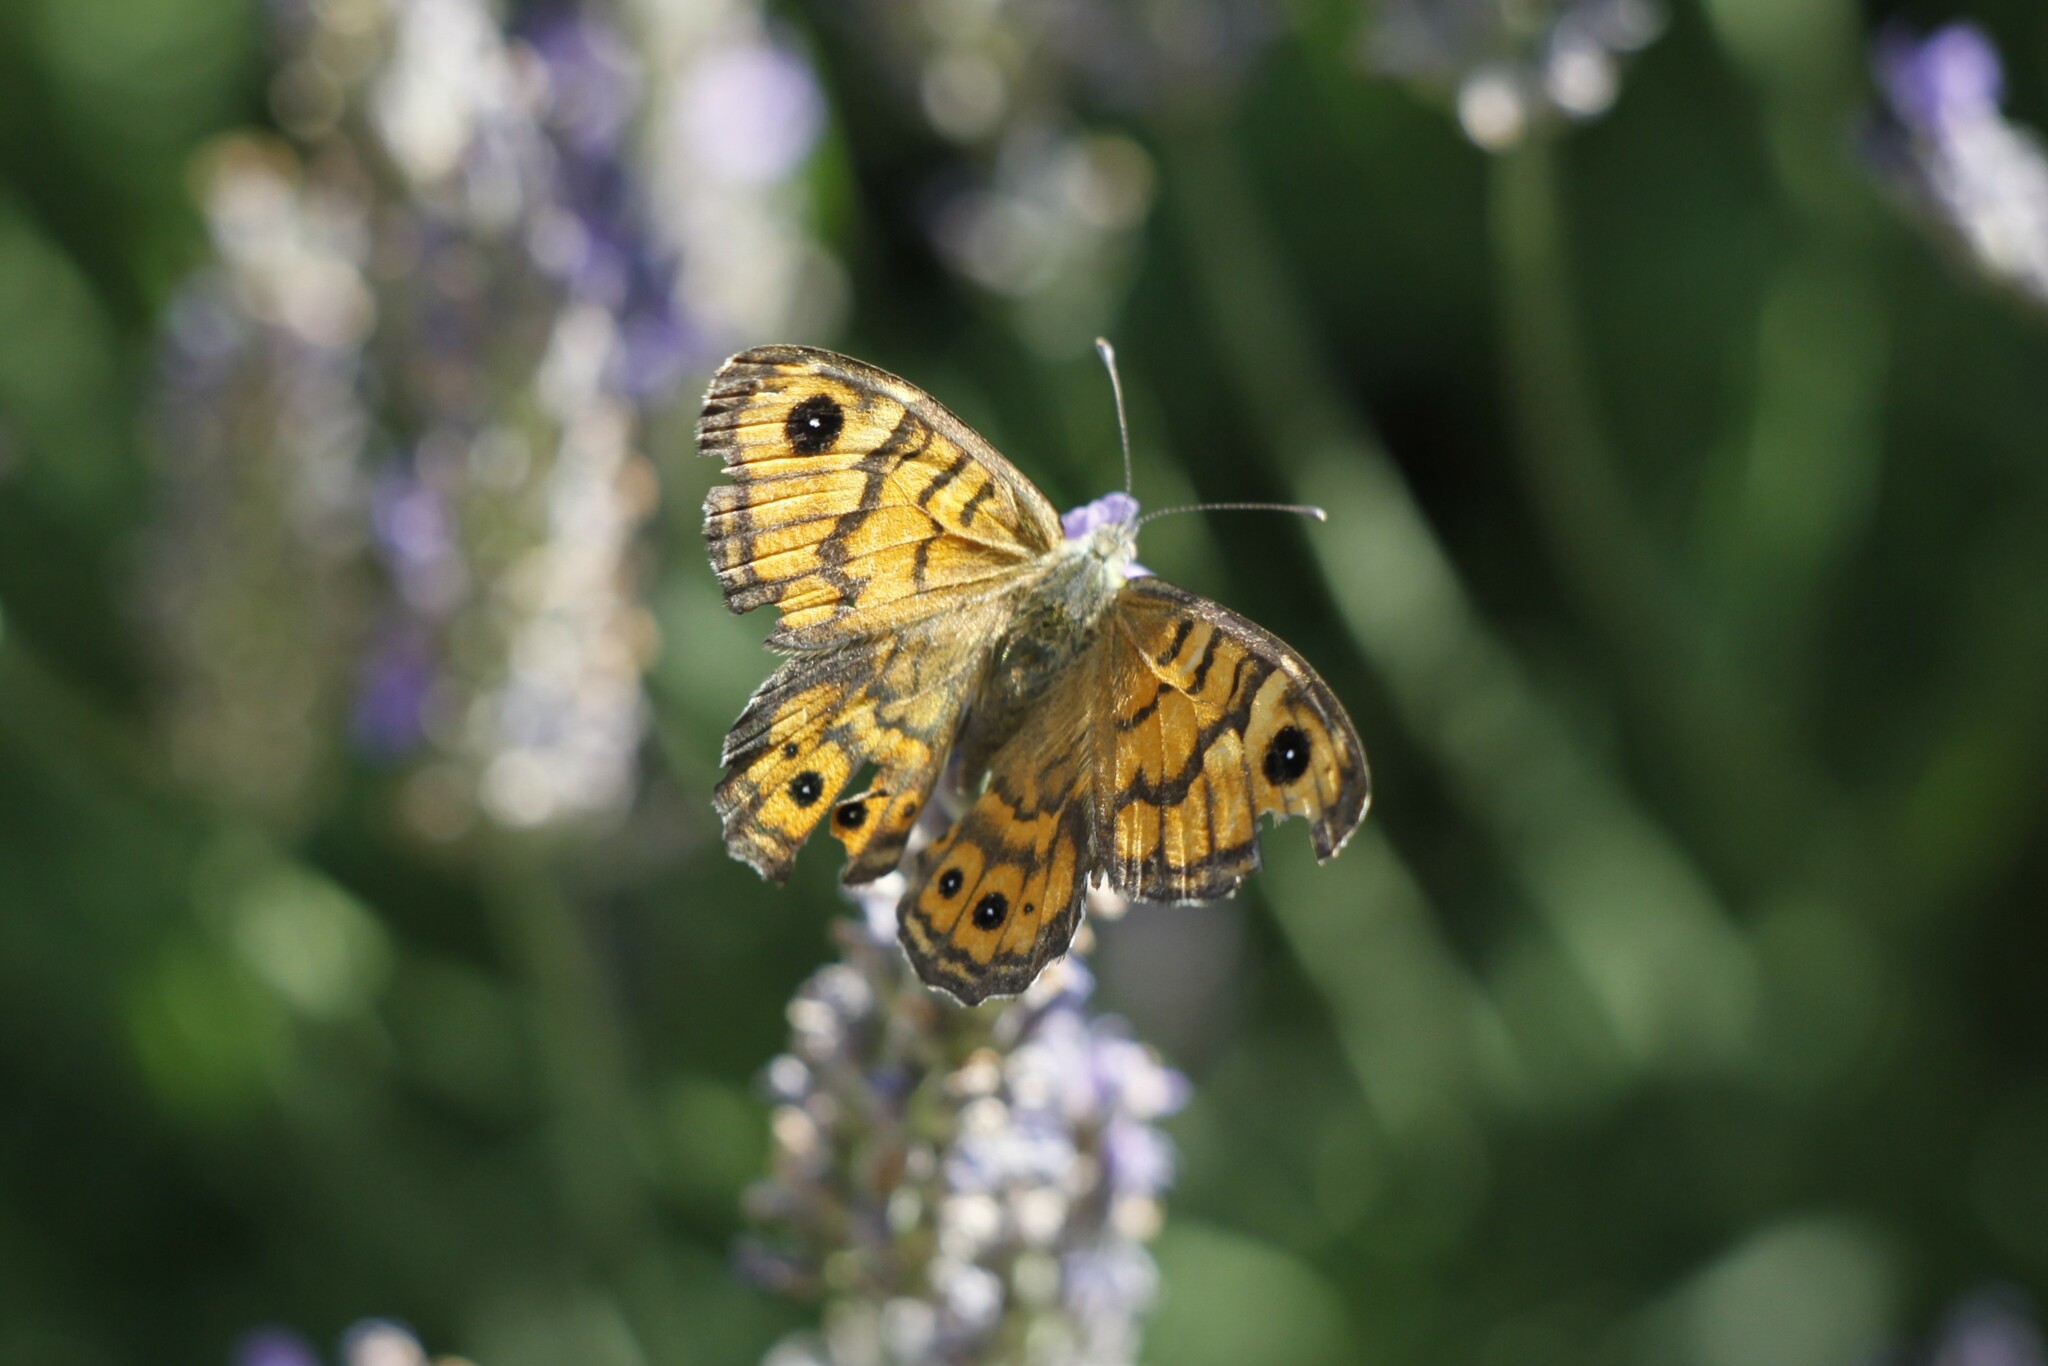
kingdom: Animalia
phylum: Arthropoda
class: Insecta
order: Lepidoptera
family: Nymphalidae
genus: Pararge
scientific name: Pararge Lasiommata megera
